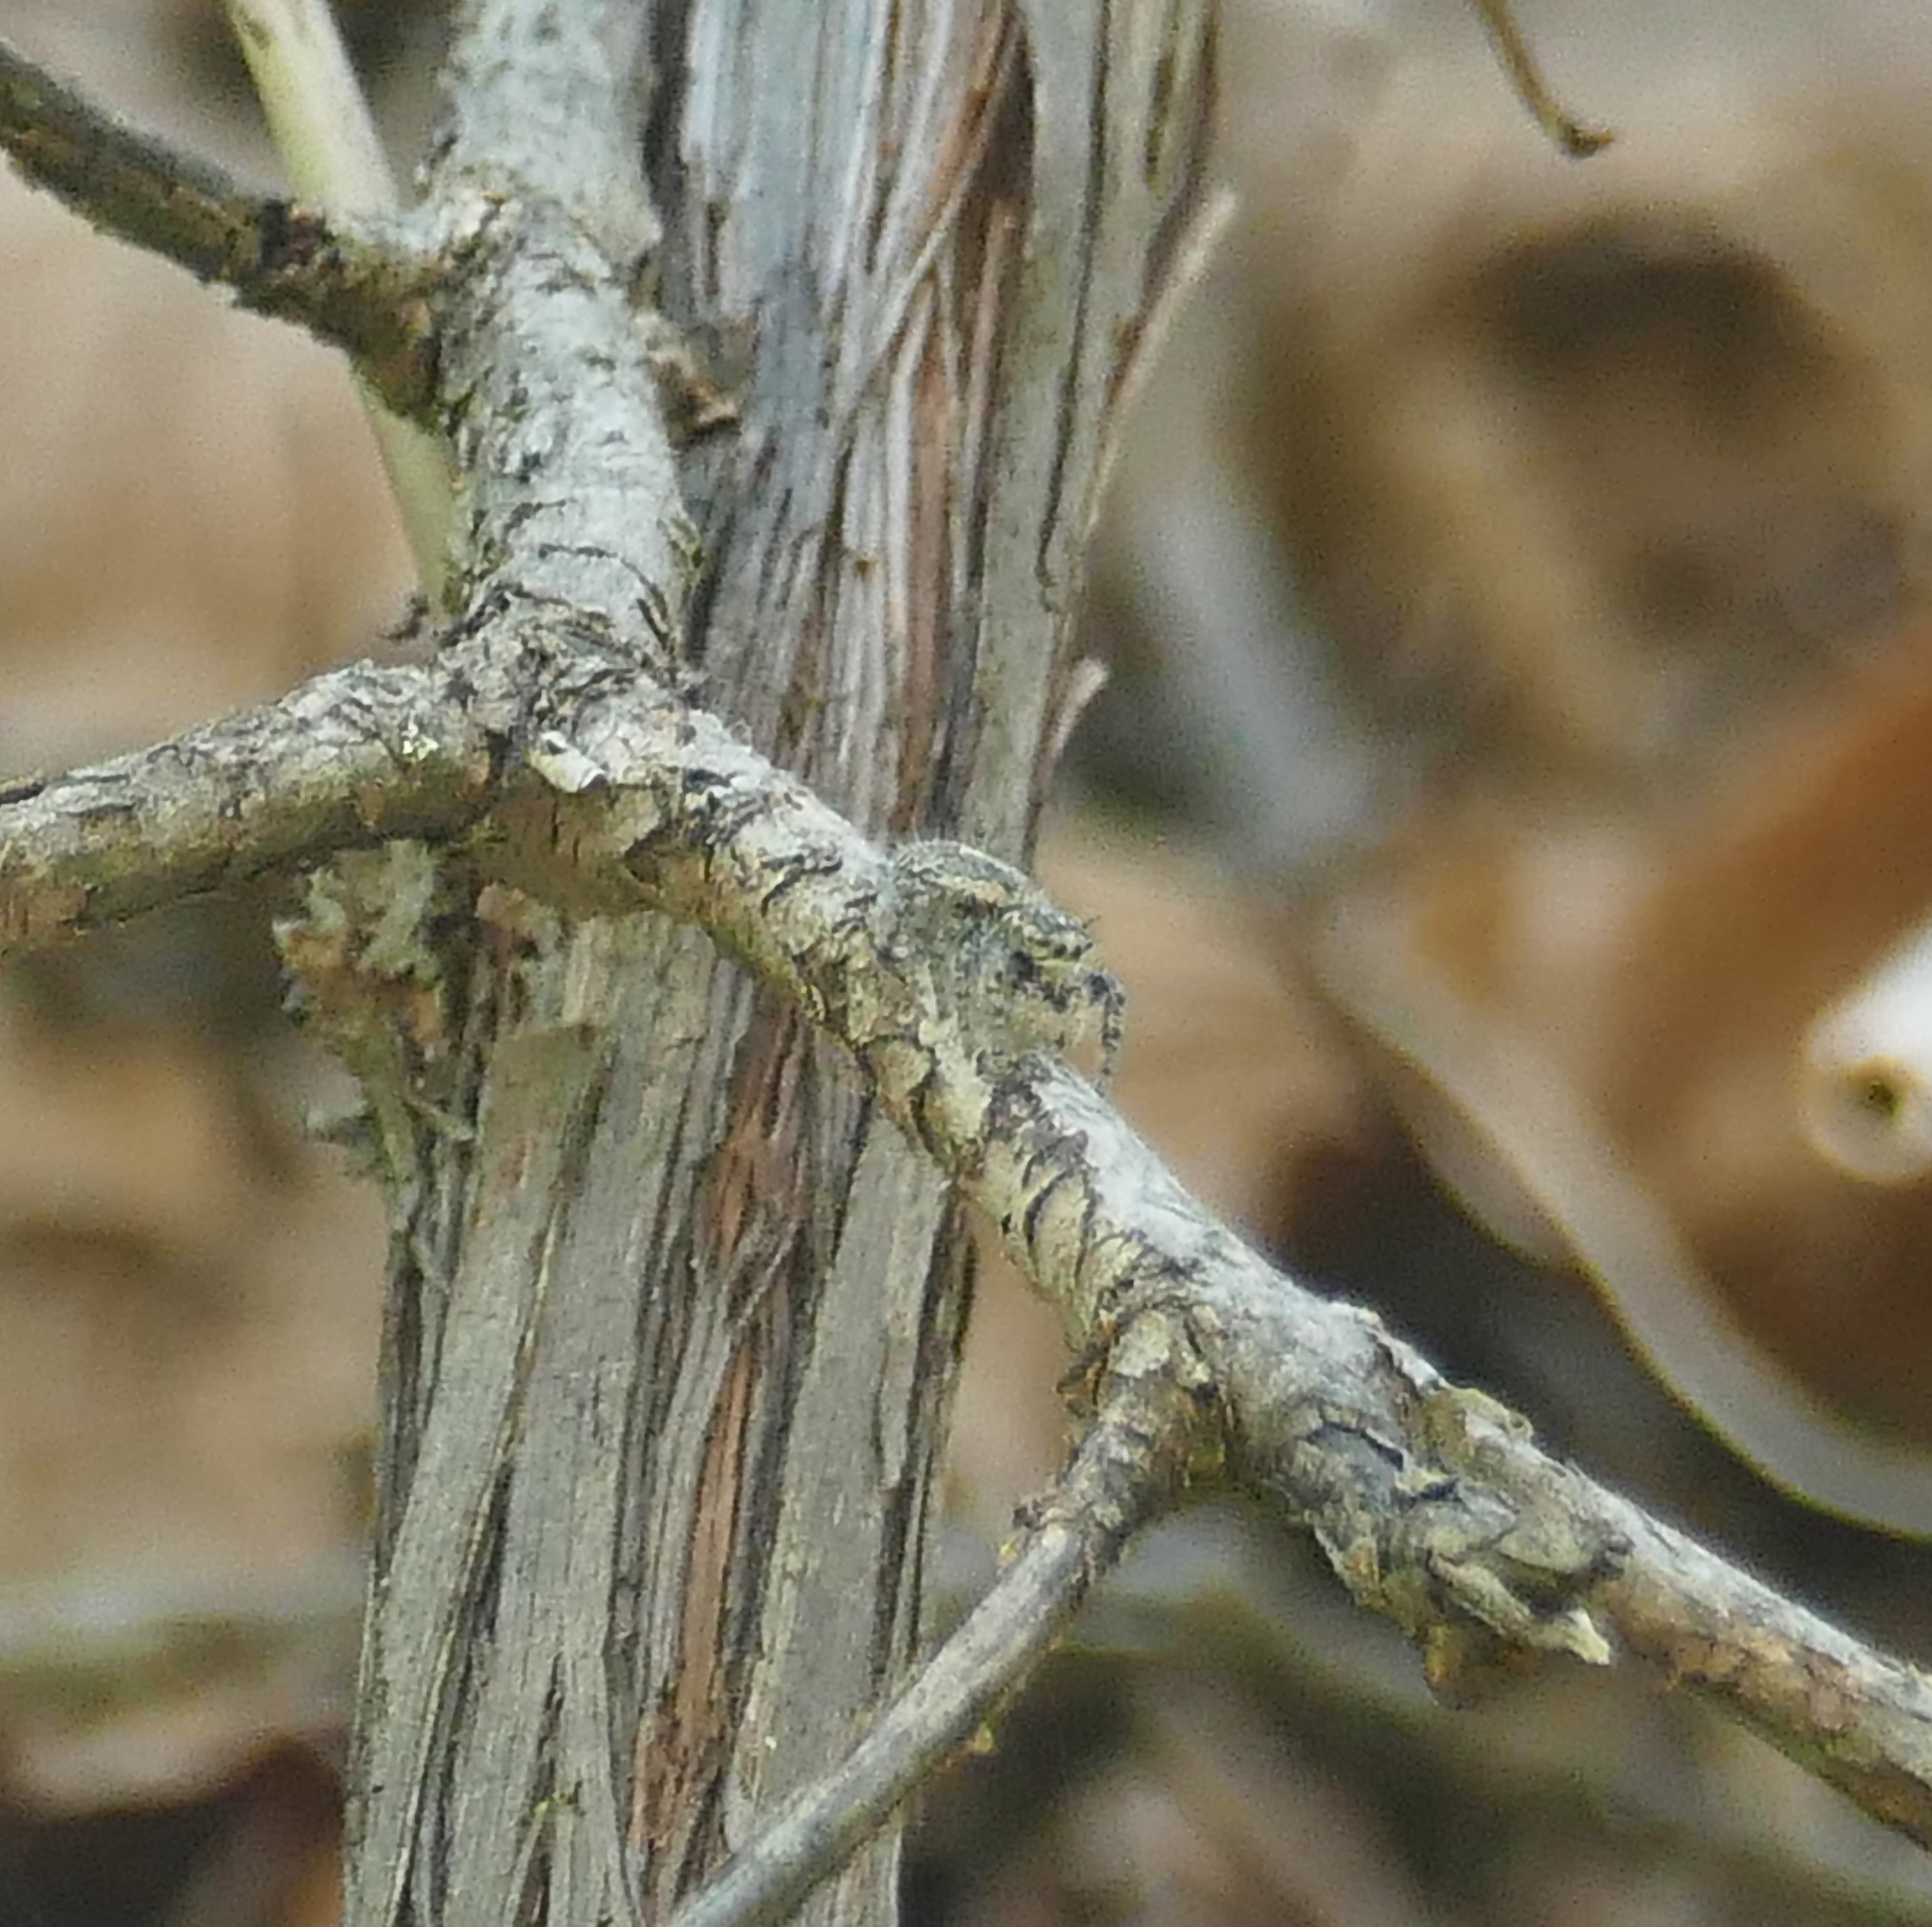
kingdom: Animalia
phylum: Arthropoda
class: Arachnida
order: Araneae
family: Salticidae
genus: Phidippus
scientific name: Phidippus asotus
